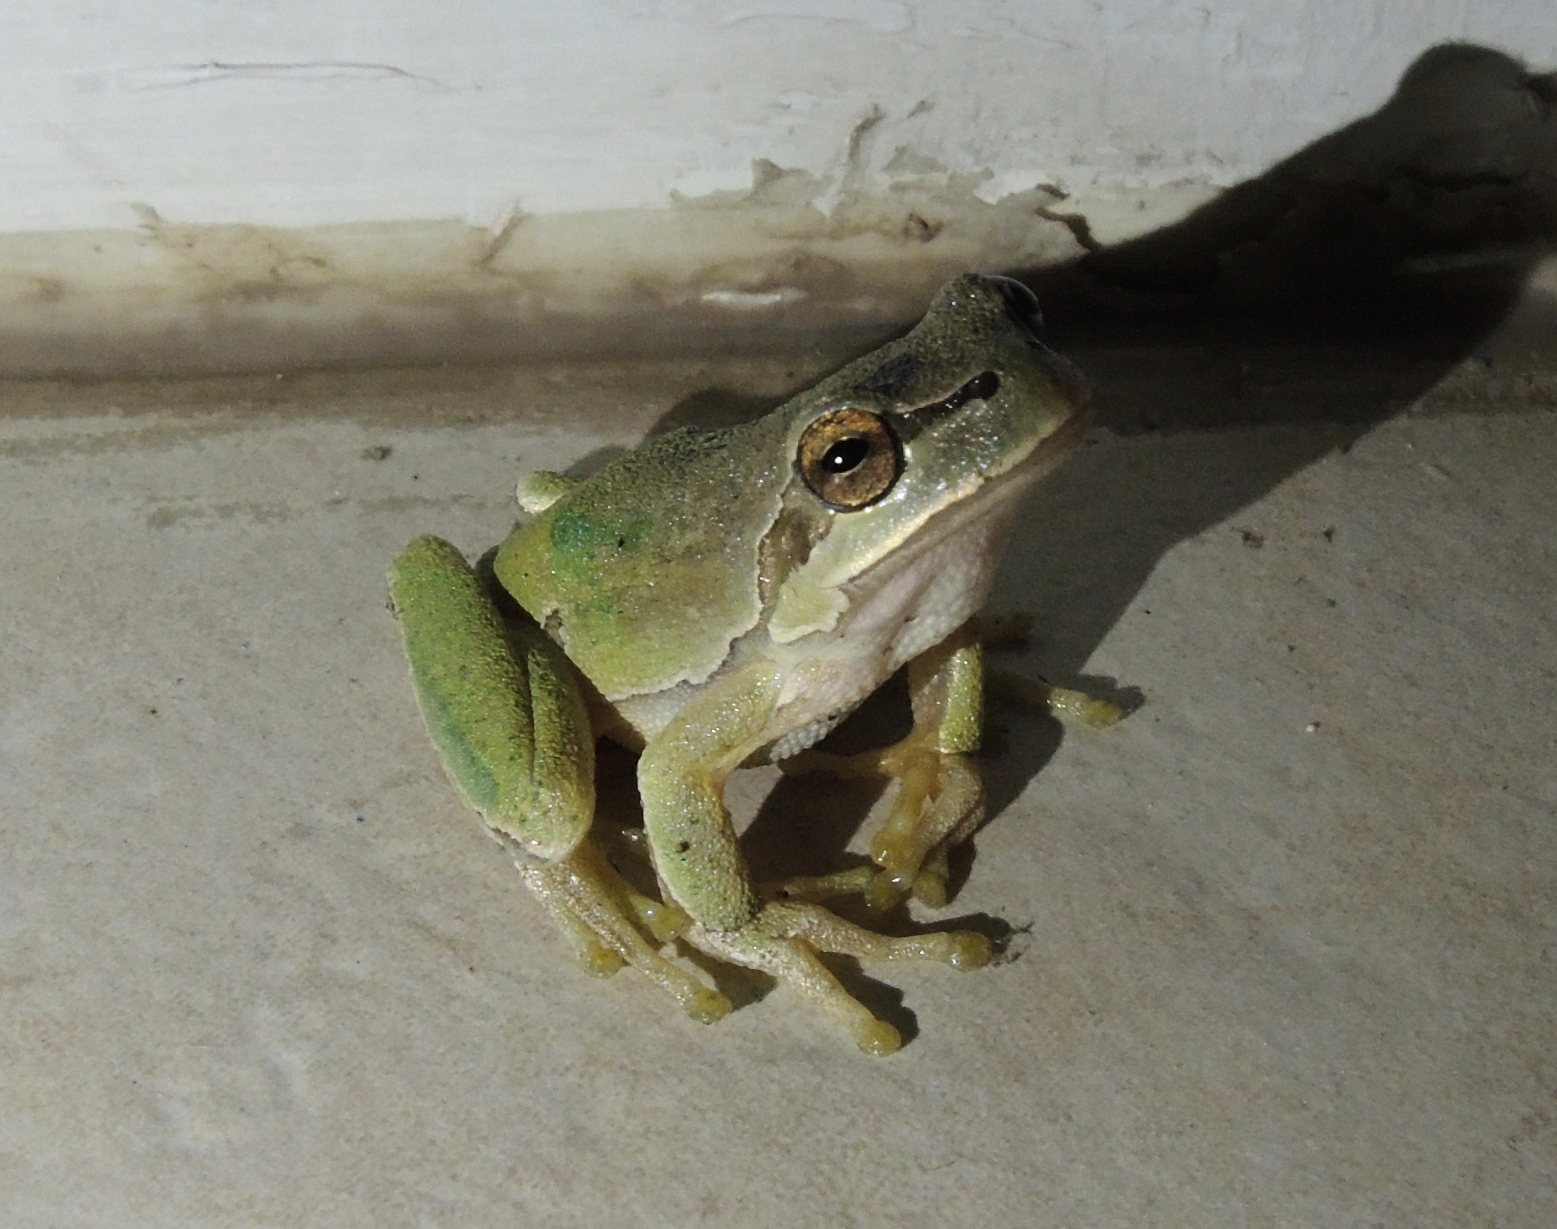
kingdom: Animalia
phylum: Chordata
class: Amphibia
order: Anura
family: Hylidae
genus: Hyla
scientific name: Hyla orientalis
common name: Caucasian treefrog
